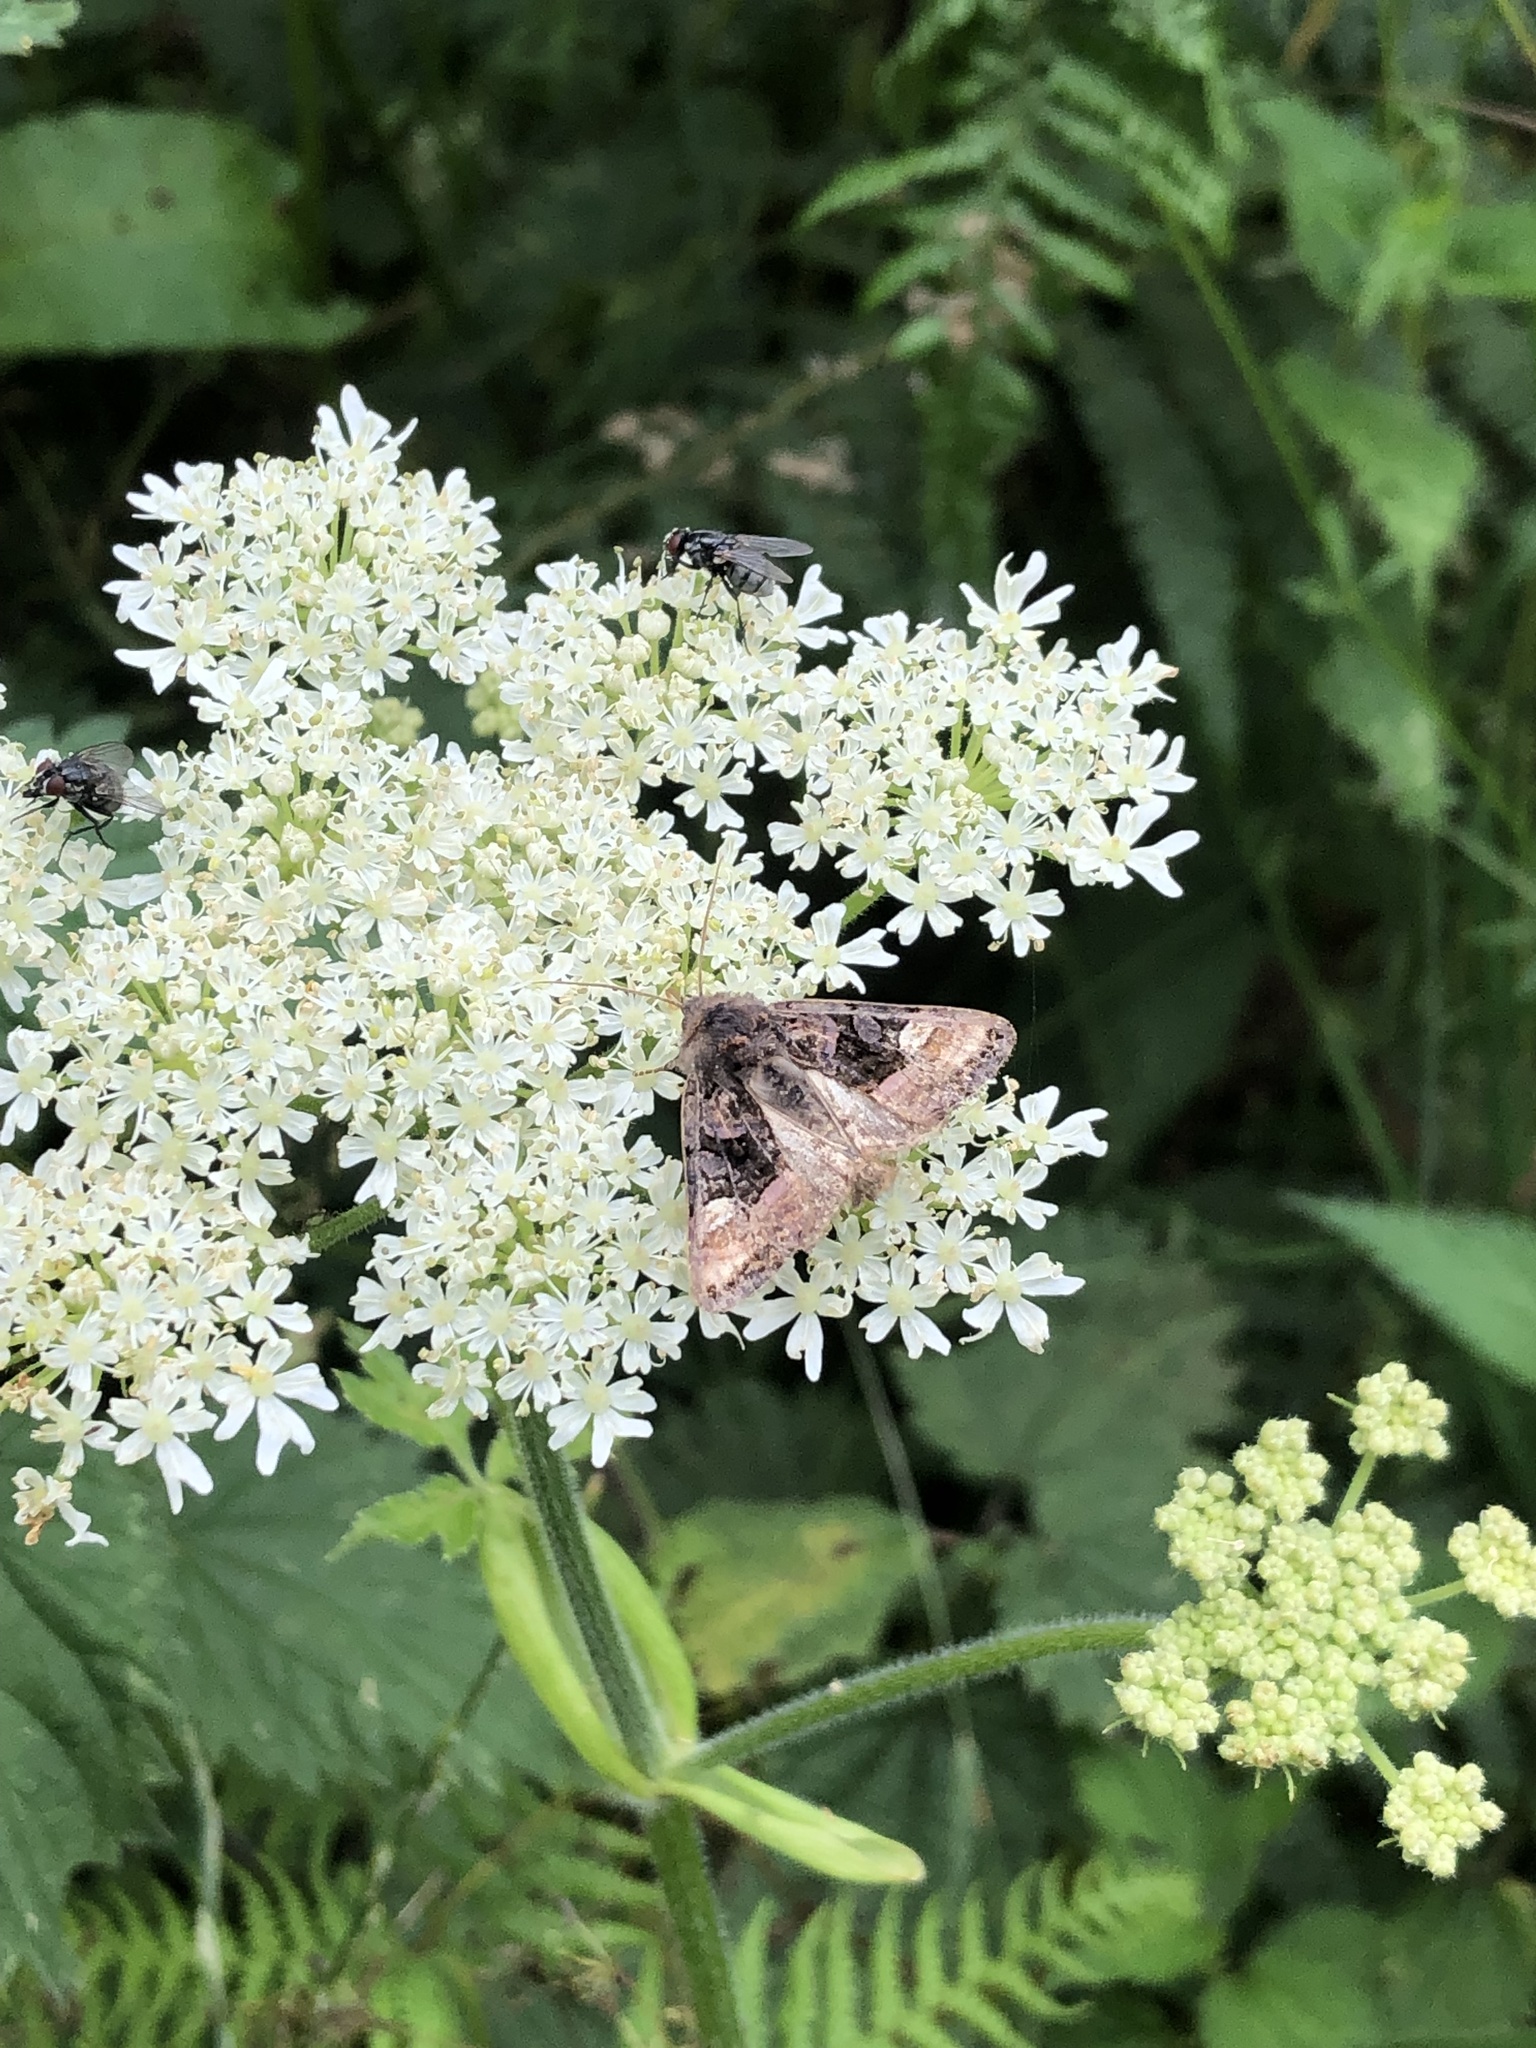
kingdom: Animalia
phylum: Arthropoda
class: Insecta
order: Lepidoptera
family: Noctuidae
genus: Euplexia
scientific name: Euplexia lucipara
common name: Small angle shades
